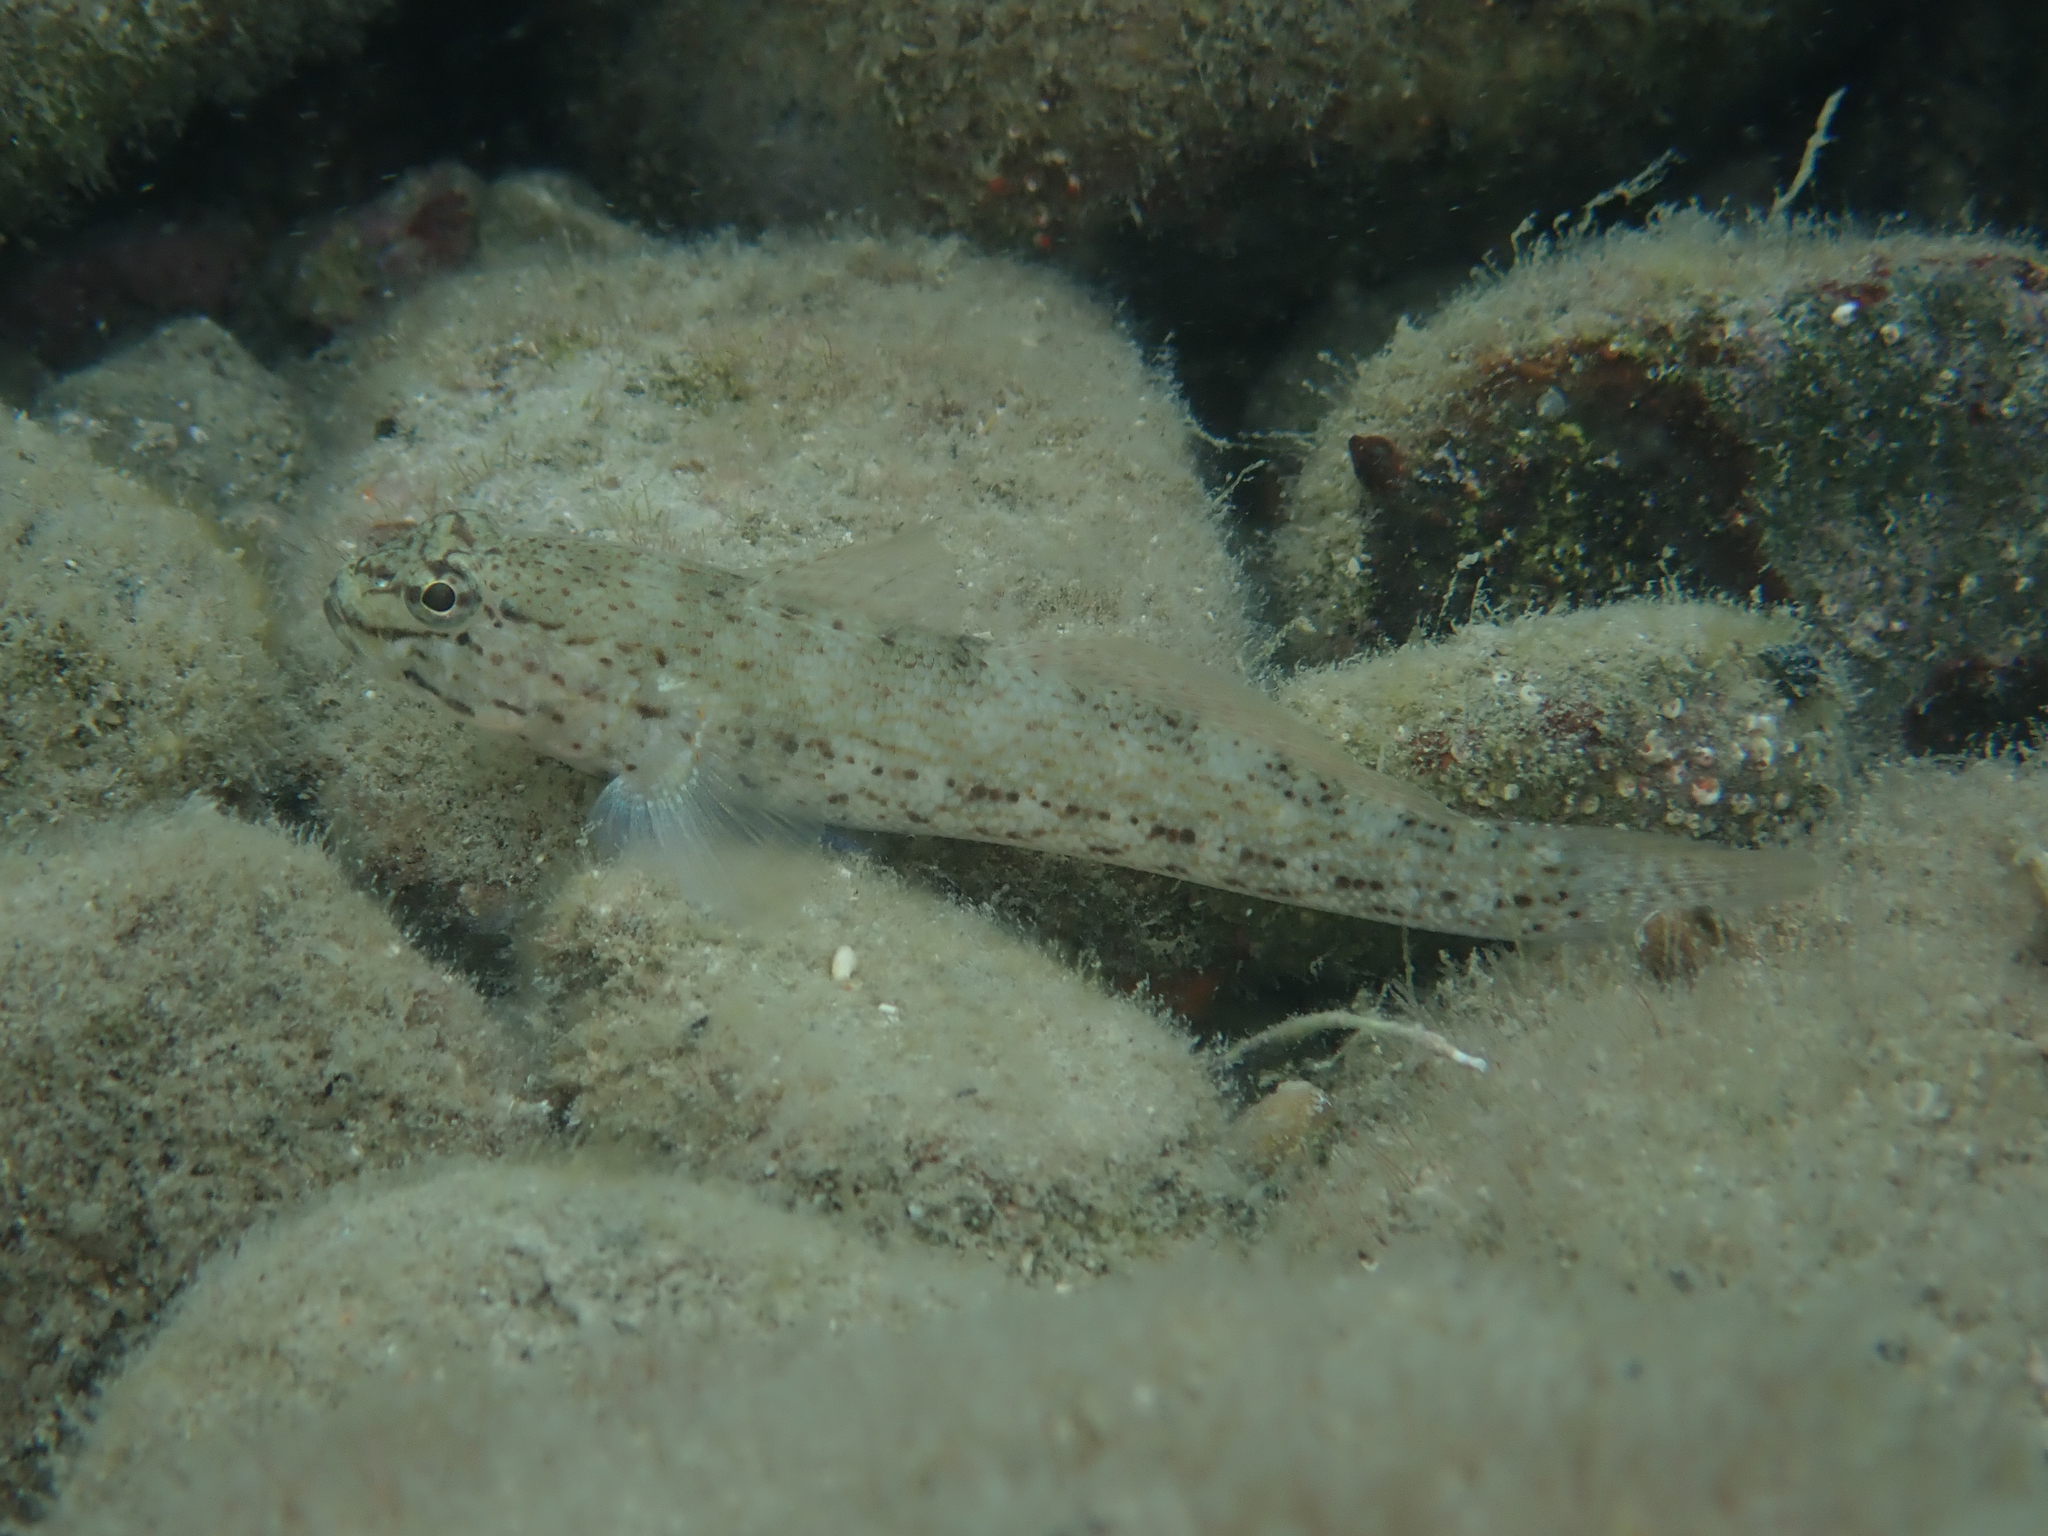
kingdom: Animalia
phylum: Chordata
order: Perciformes
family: Gobiidae
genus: Gobius
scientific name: Gobius bucchichi
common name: Bucchich's goby
